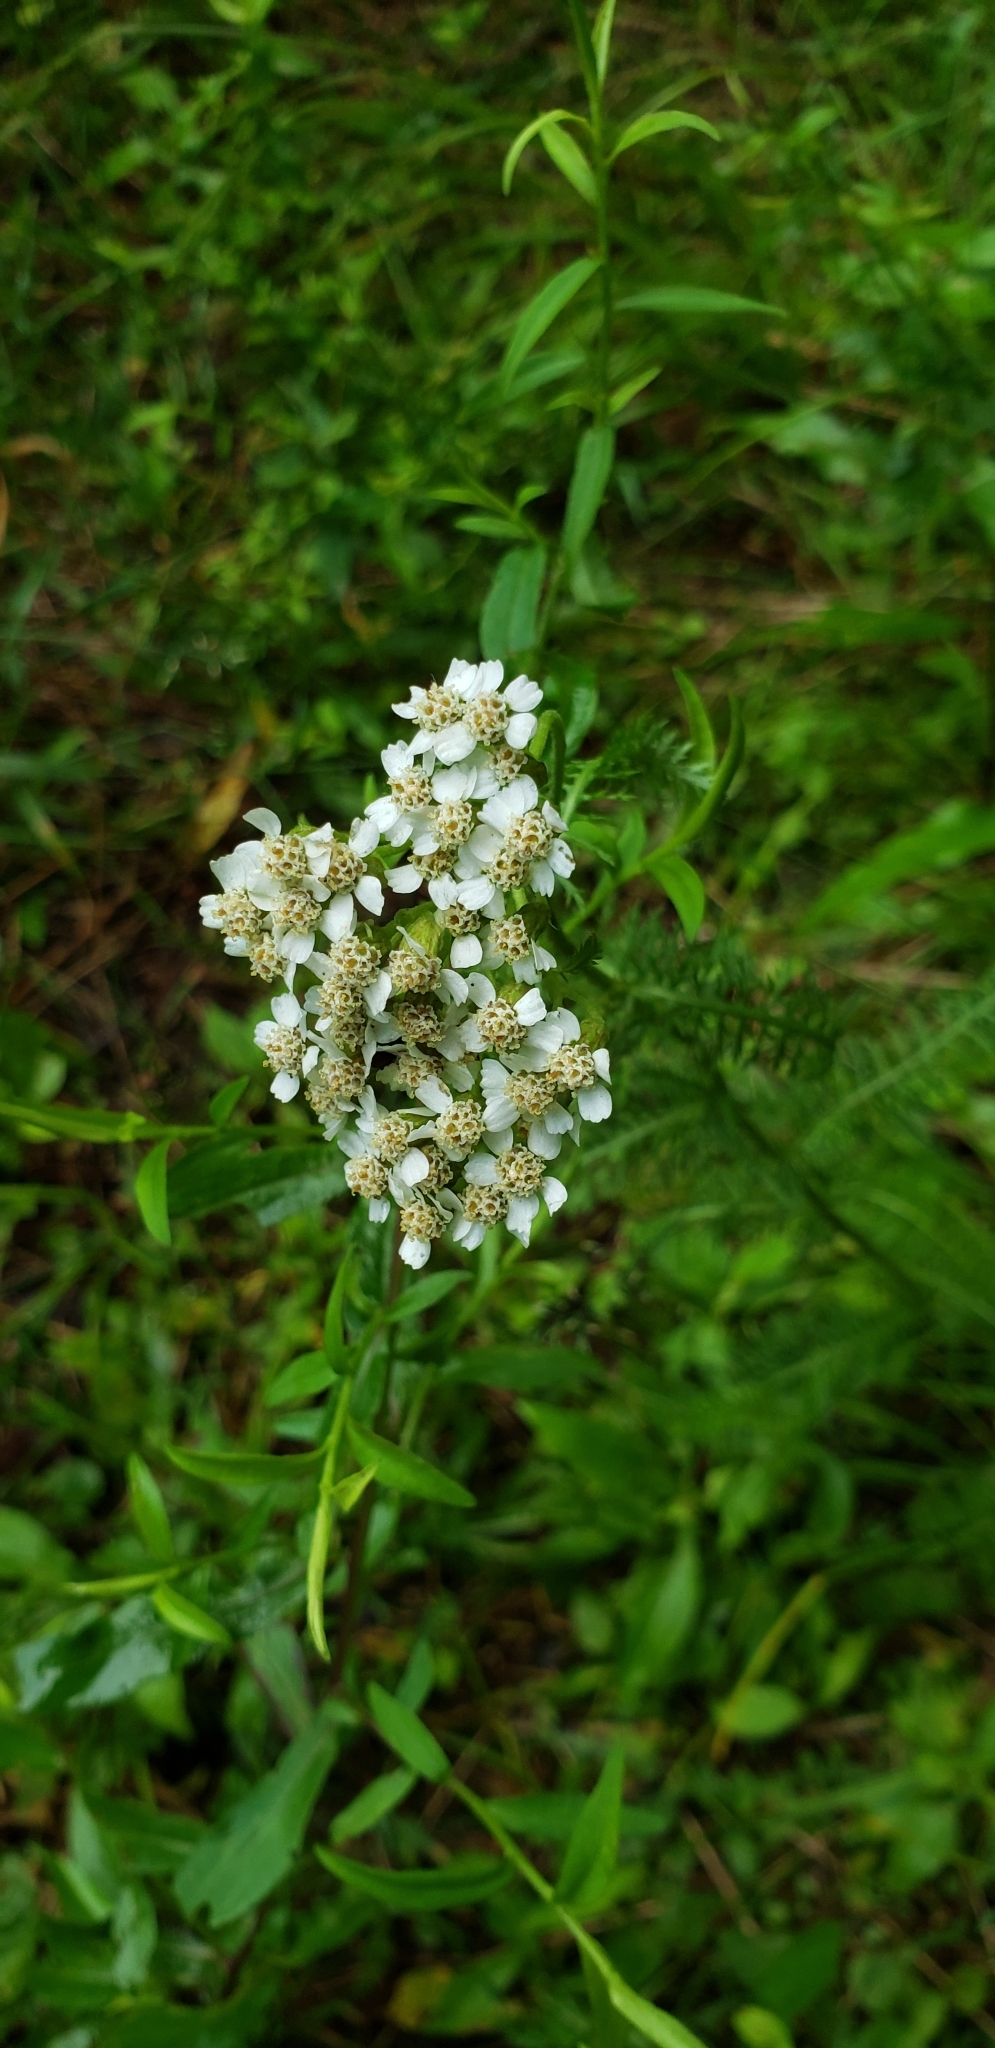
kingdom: Plantae
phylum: Tracheophyta
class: Magnoliopsida
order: Asterales
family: Asteraceae
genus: Achillea
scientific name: Achillea millefolium
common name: Yarrow
